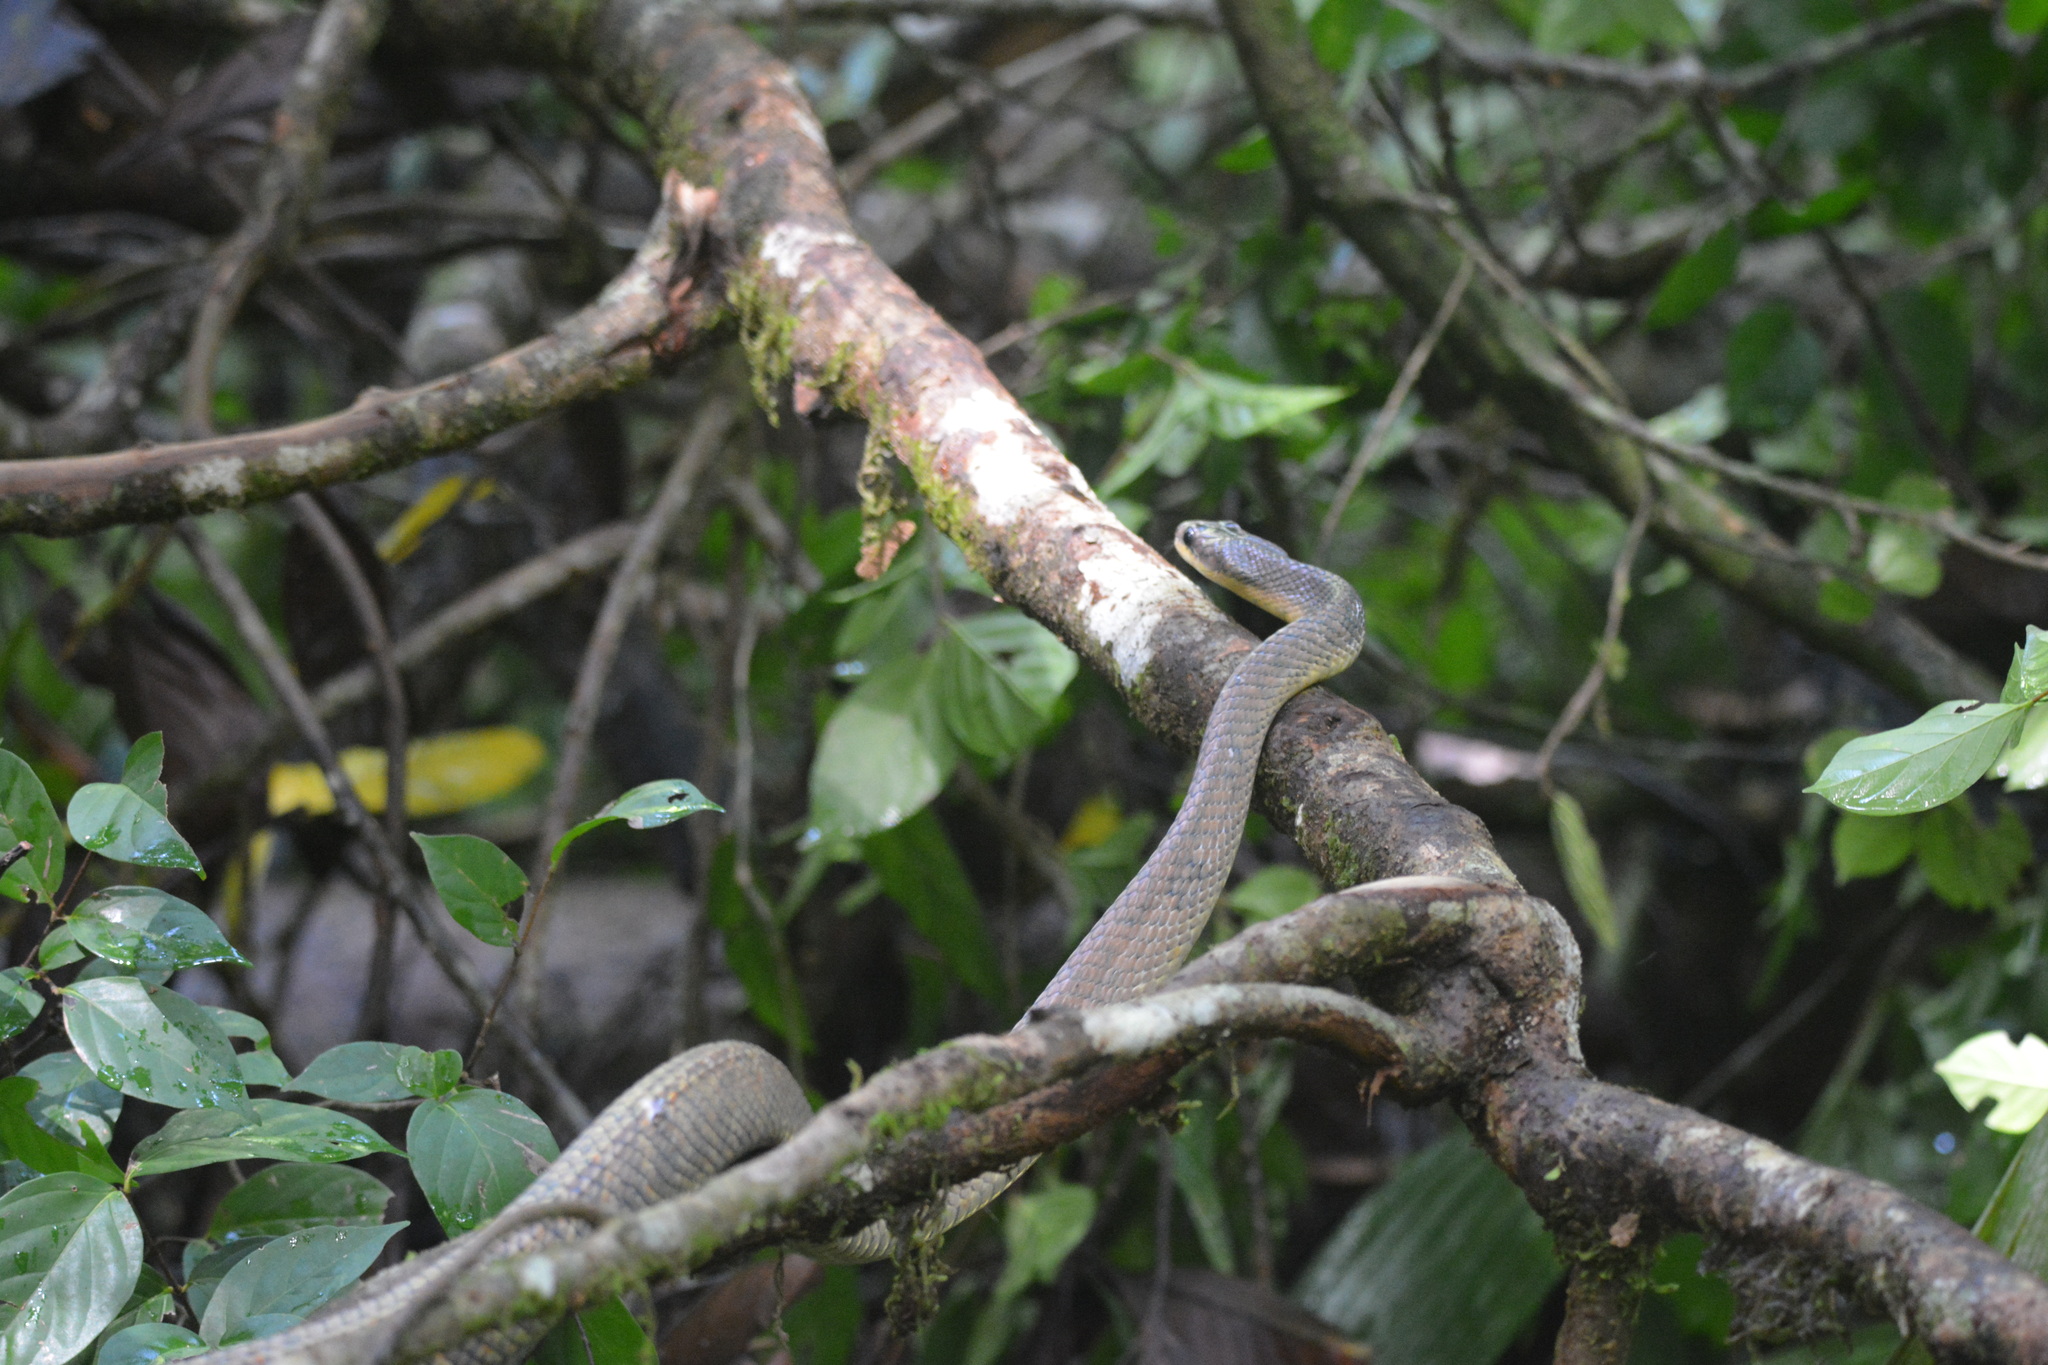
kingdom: Animalia
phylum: Chordata
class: Squamata
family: Colubridae
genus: Phrynonax
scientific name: Phrynonax poecilonotus
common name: Puffing snake
